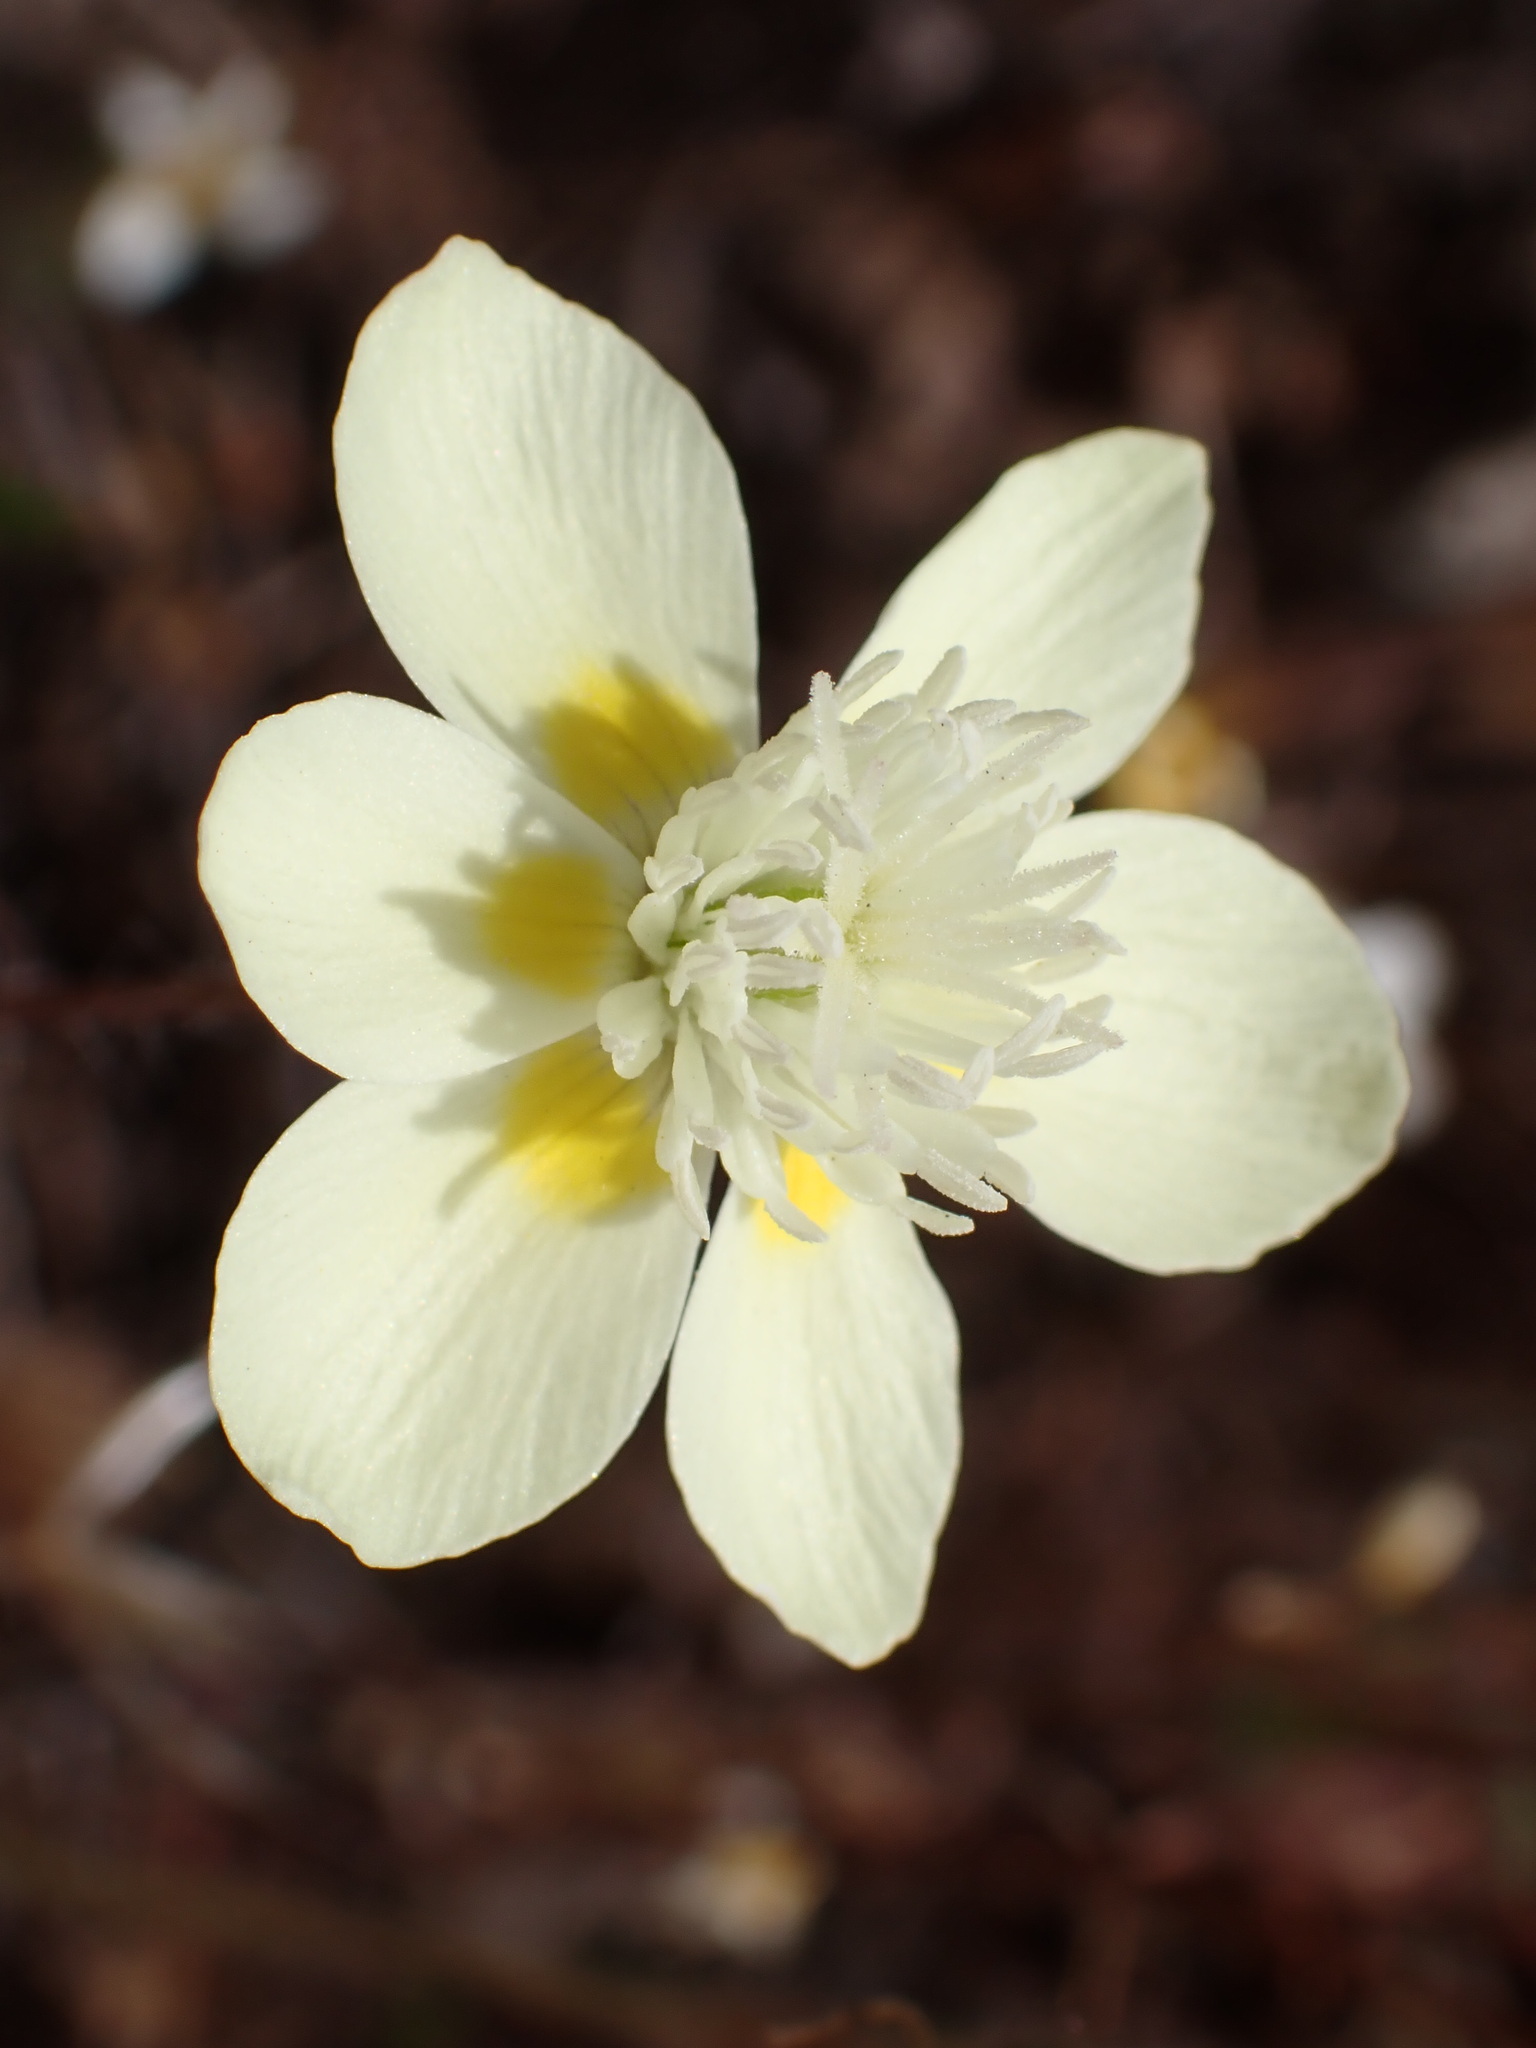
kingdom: Plantae
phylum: Tracheophyta
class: Magnoliopsida
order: Ranunculales
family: Papaveraceae
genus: Platystemon
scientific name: Platystemon californicus
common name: Cream-cups
